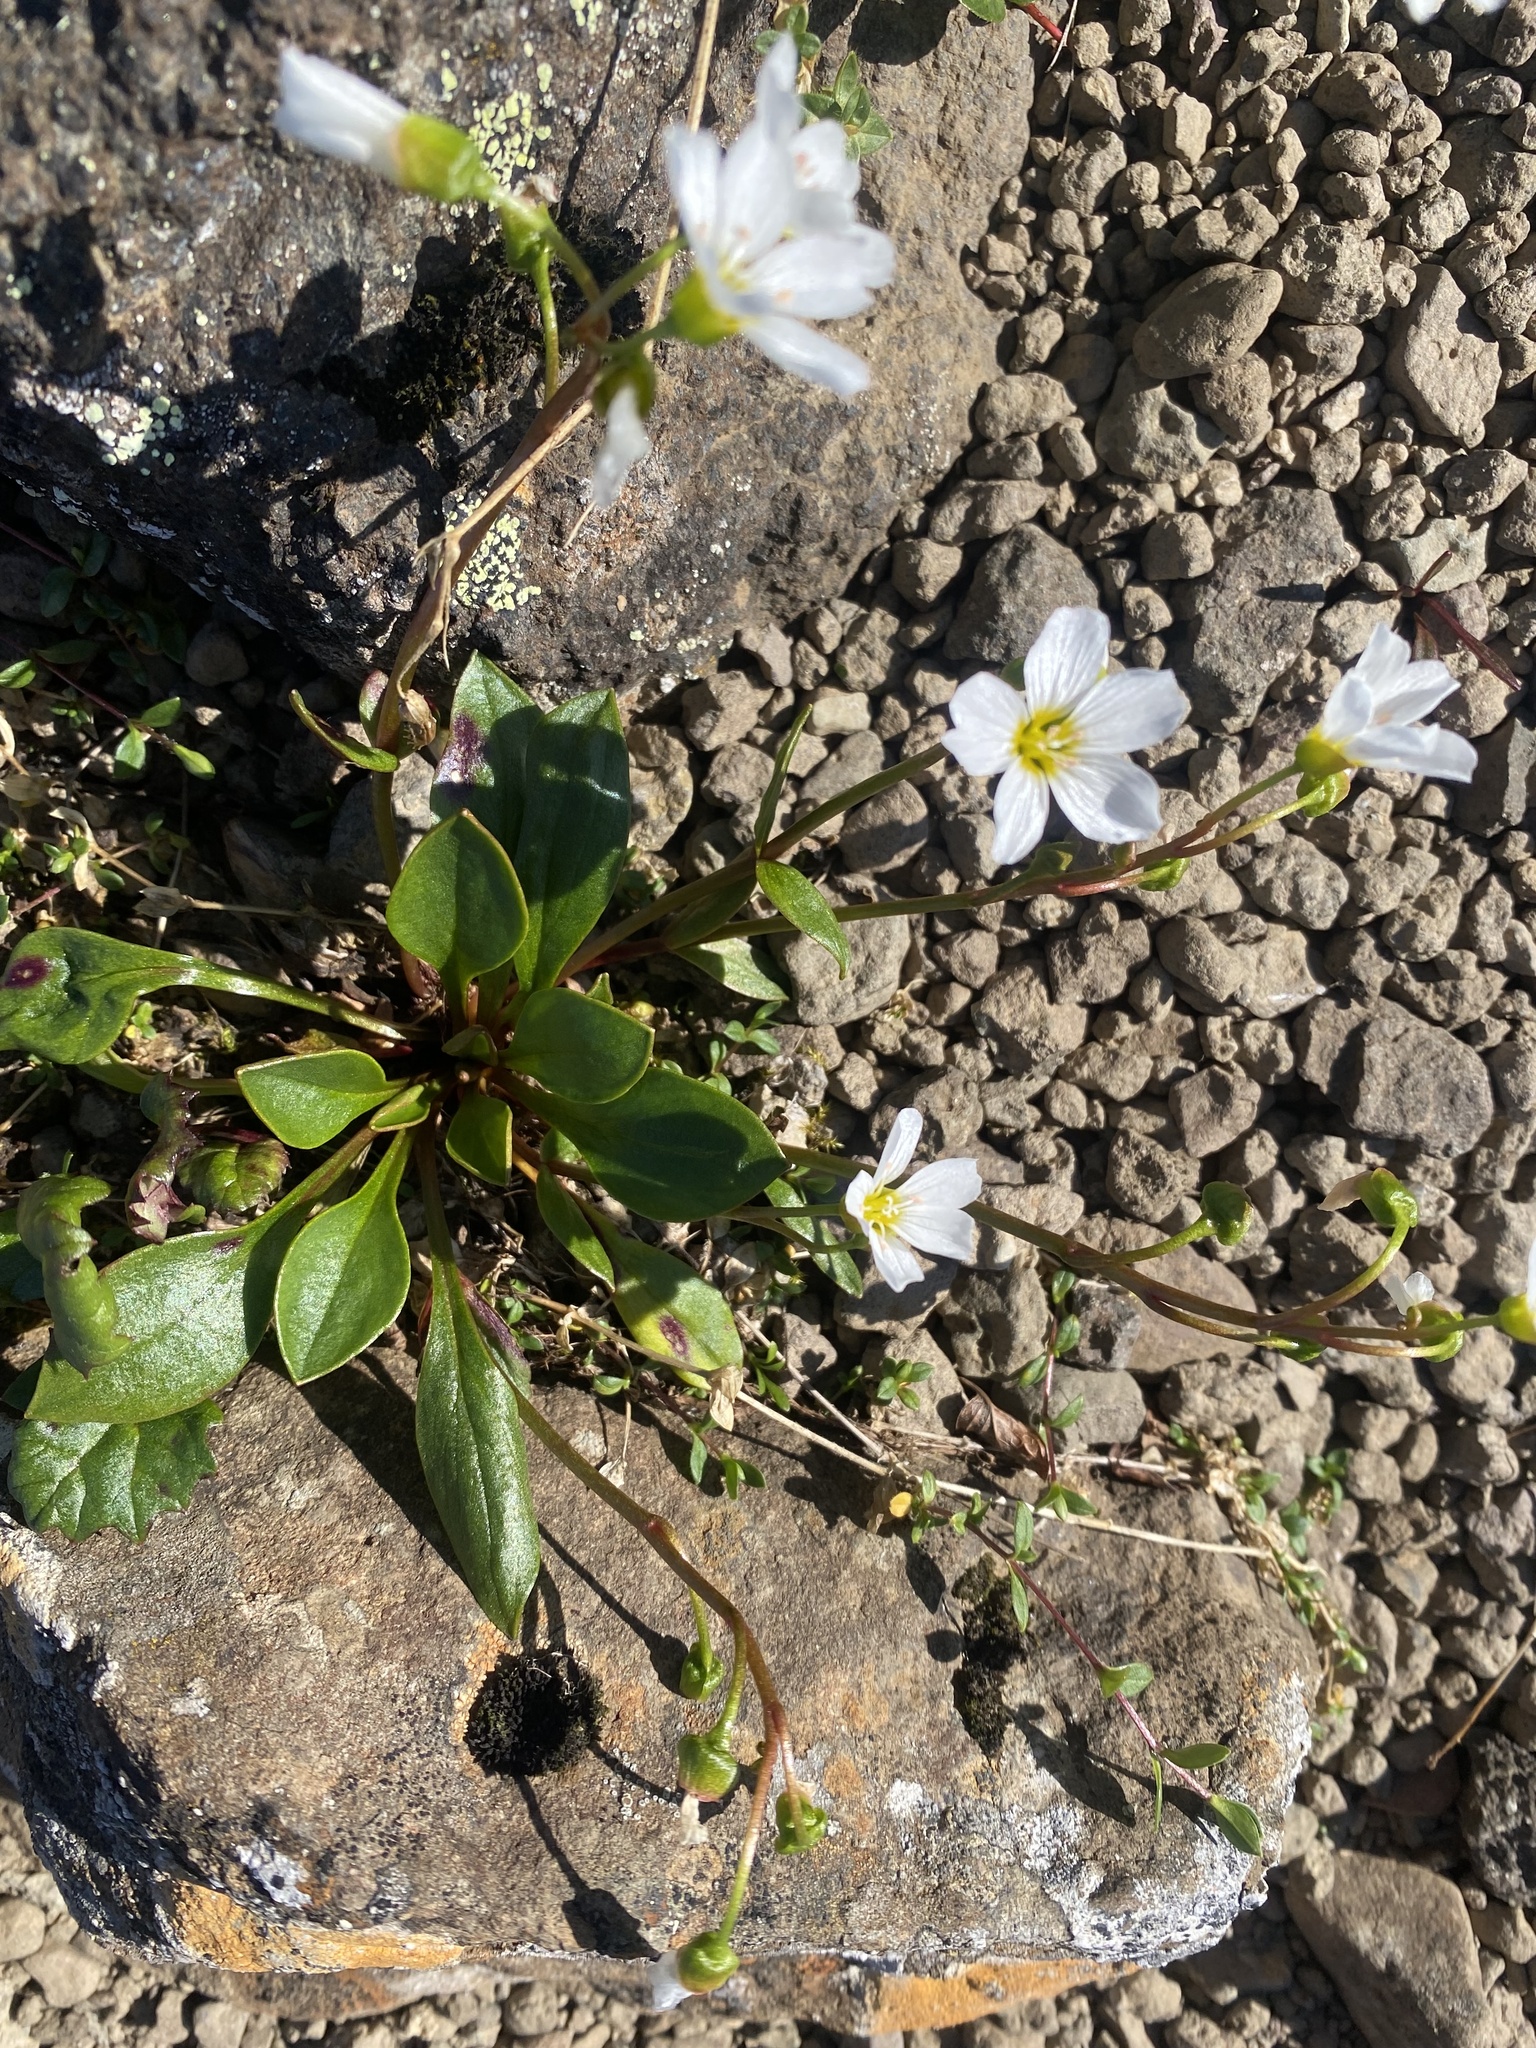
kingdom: Plantae
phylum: Tracheophyta
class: Magnoliopsida
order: Caryophyllales
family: Montiaceae
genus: Claytonia
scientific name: Claytonia joanneana
